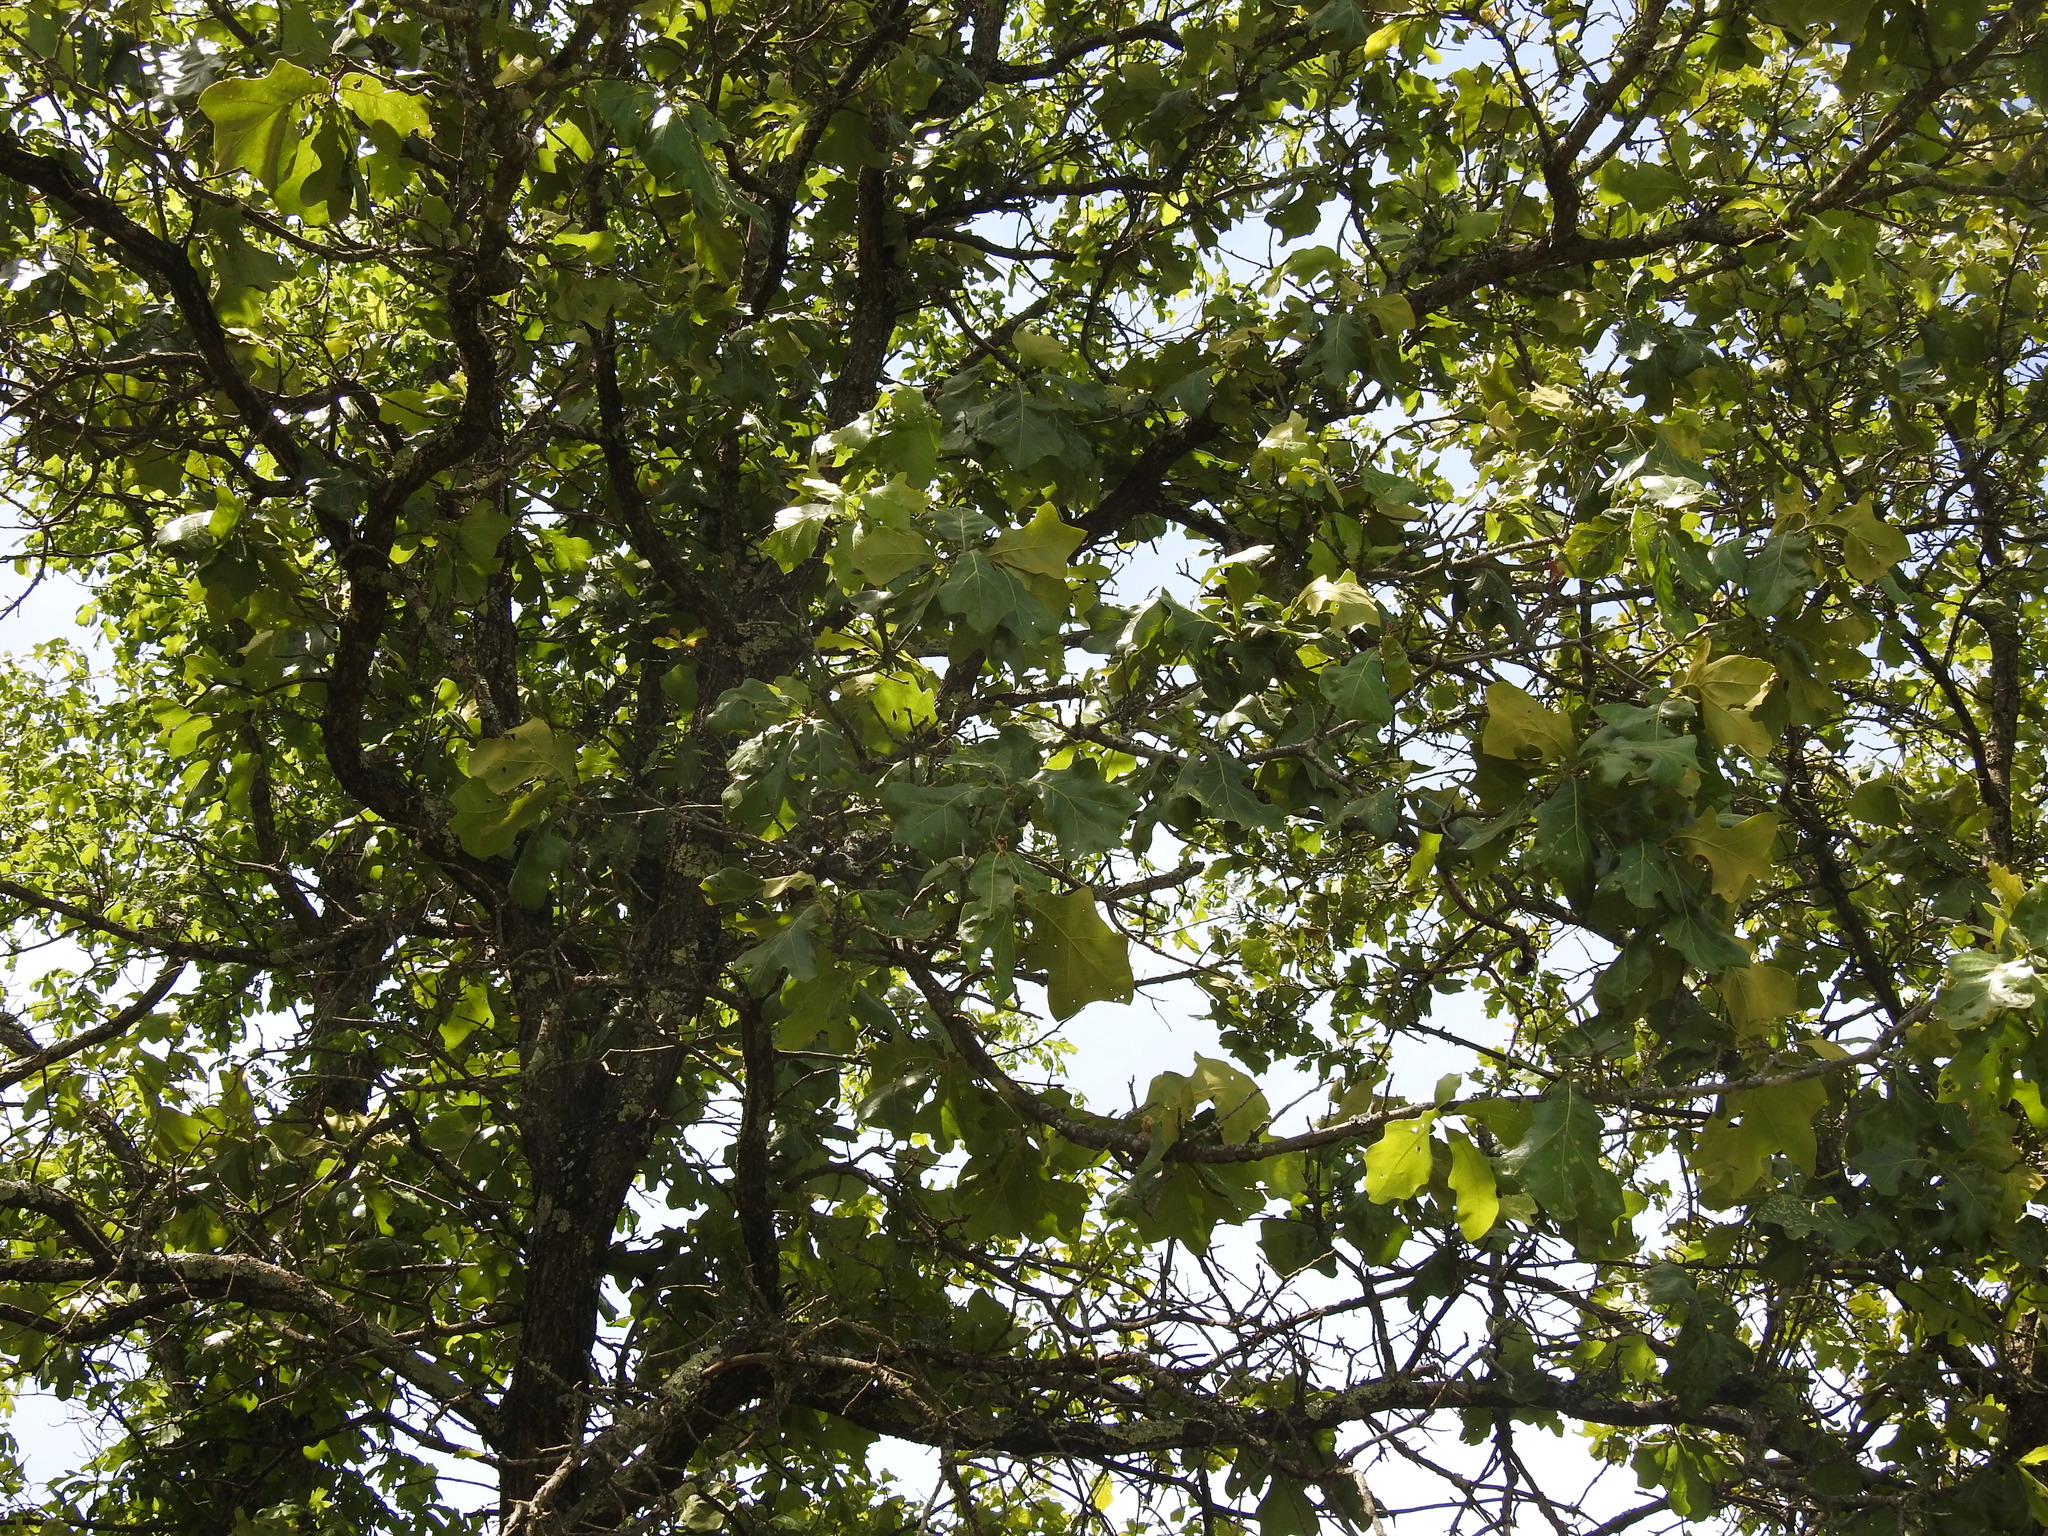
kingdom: Plantae
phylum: Tracheophyta
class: Magnoliopsida
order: Fagales
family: Fagaceae
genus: Quercus
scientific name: Quercus marilandica
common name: Blackjack oak
